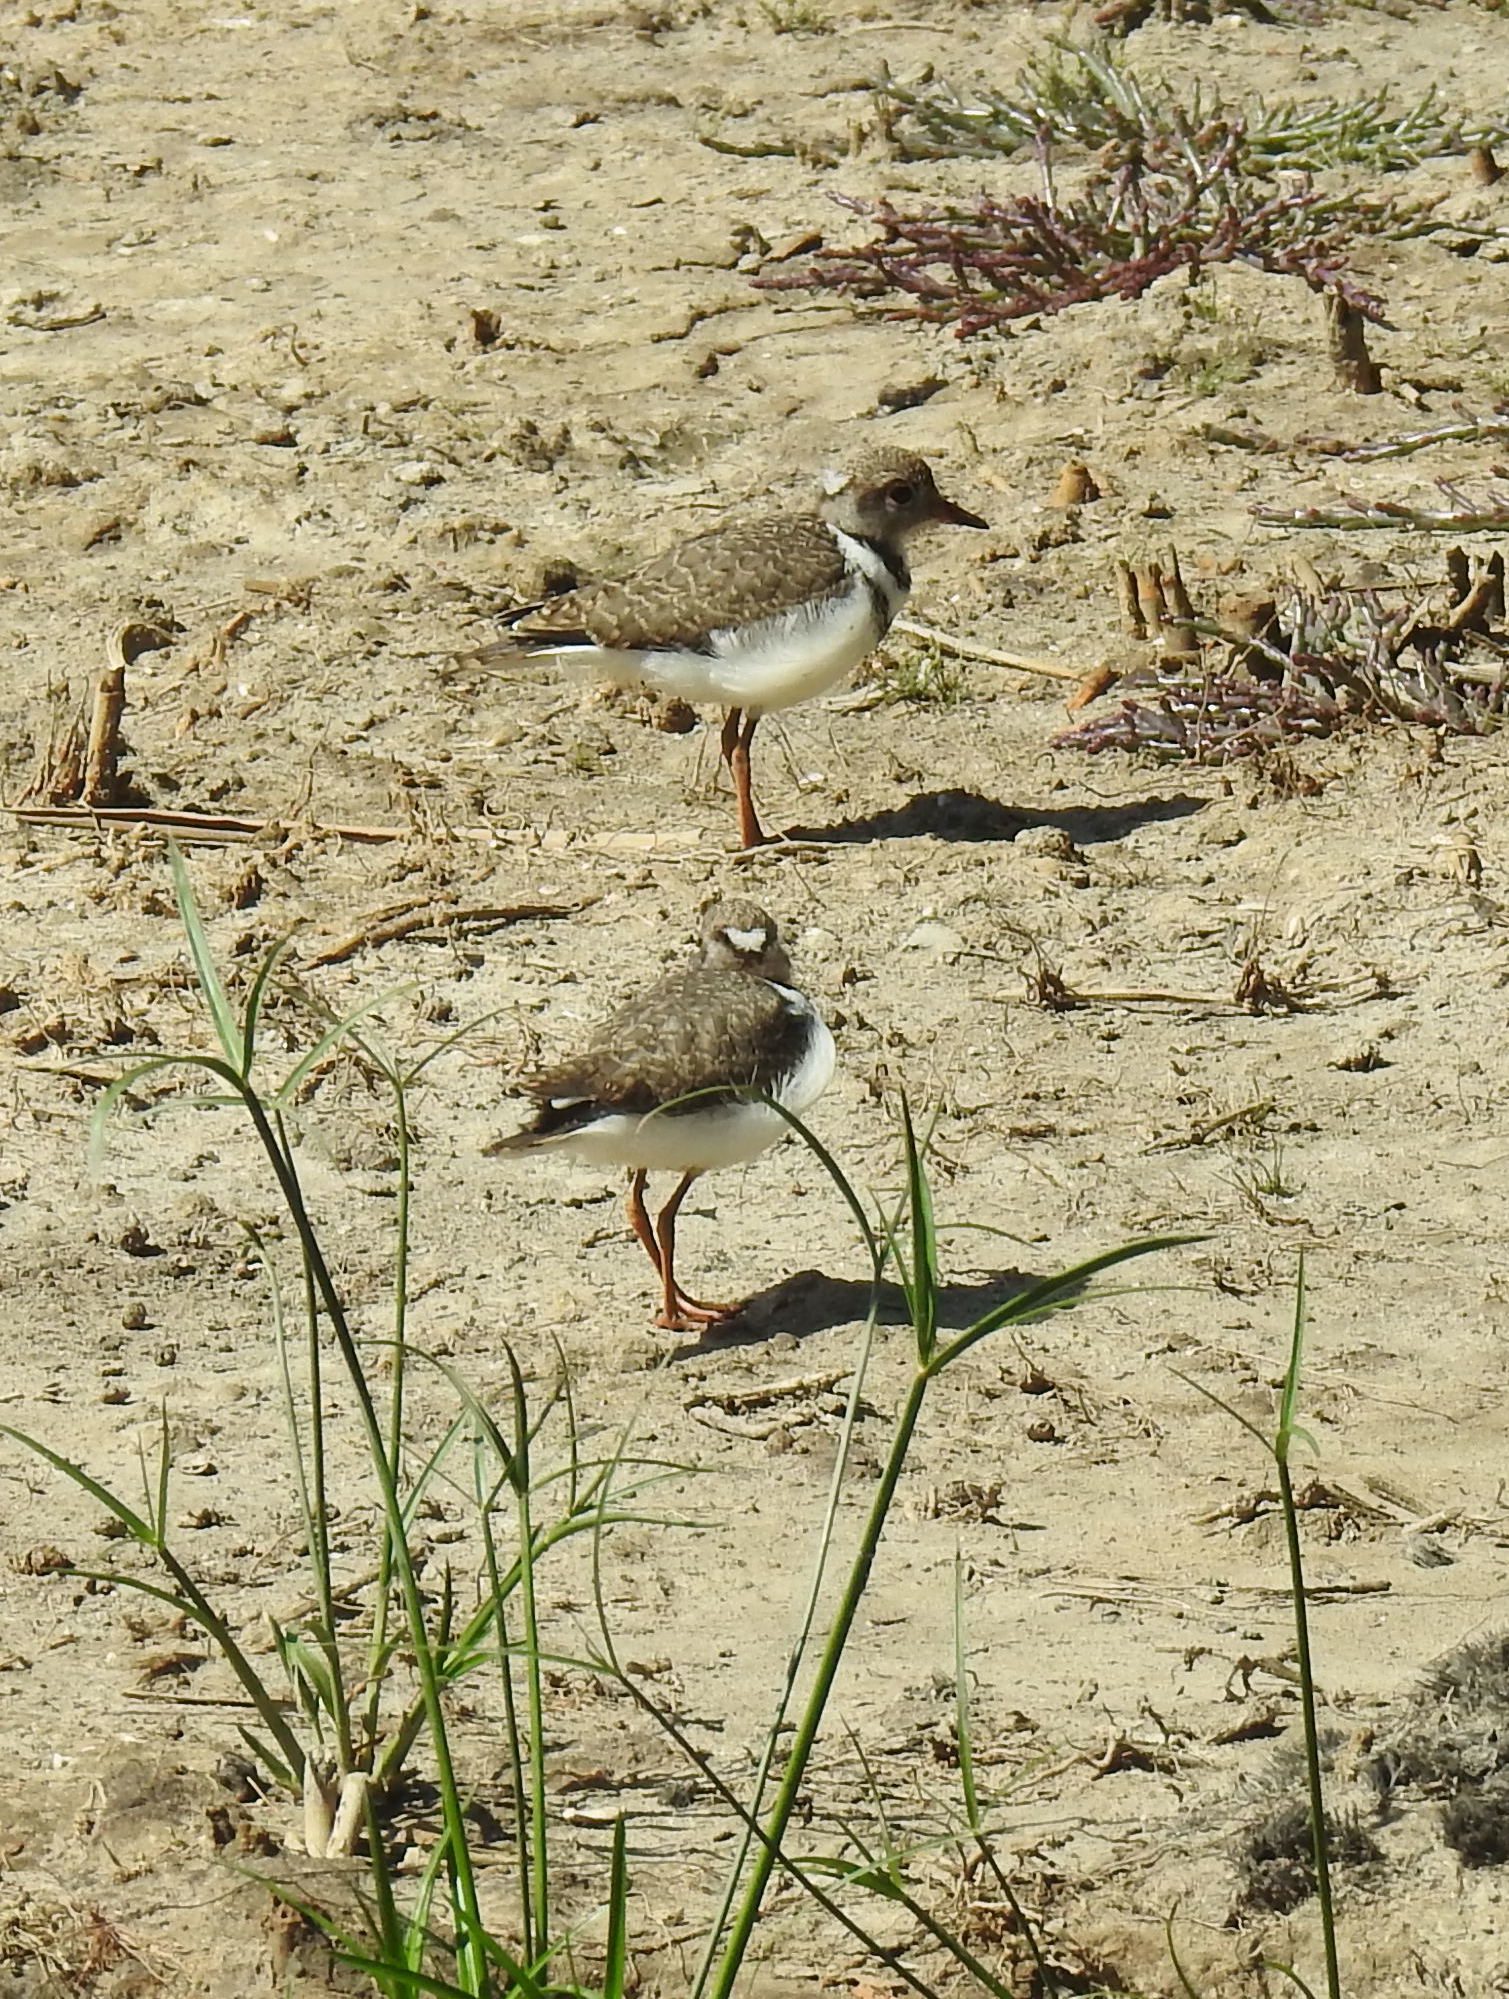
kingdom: Animalia
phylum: Chordata
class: Aves
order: Charadriiformes
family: Charadriidae
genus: Charadrius
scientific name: Charadrius tricollaris
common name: Three-banded plover
